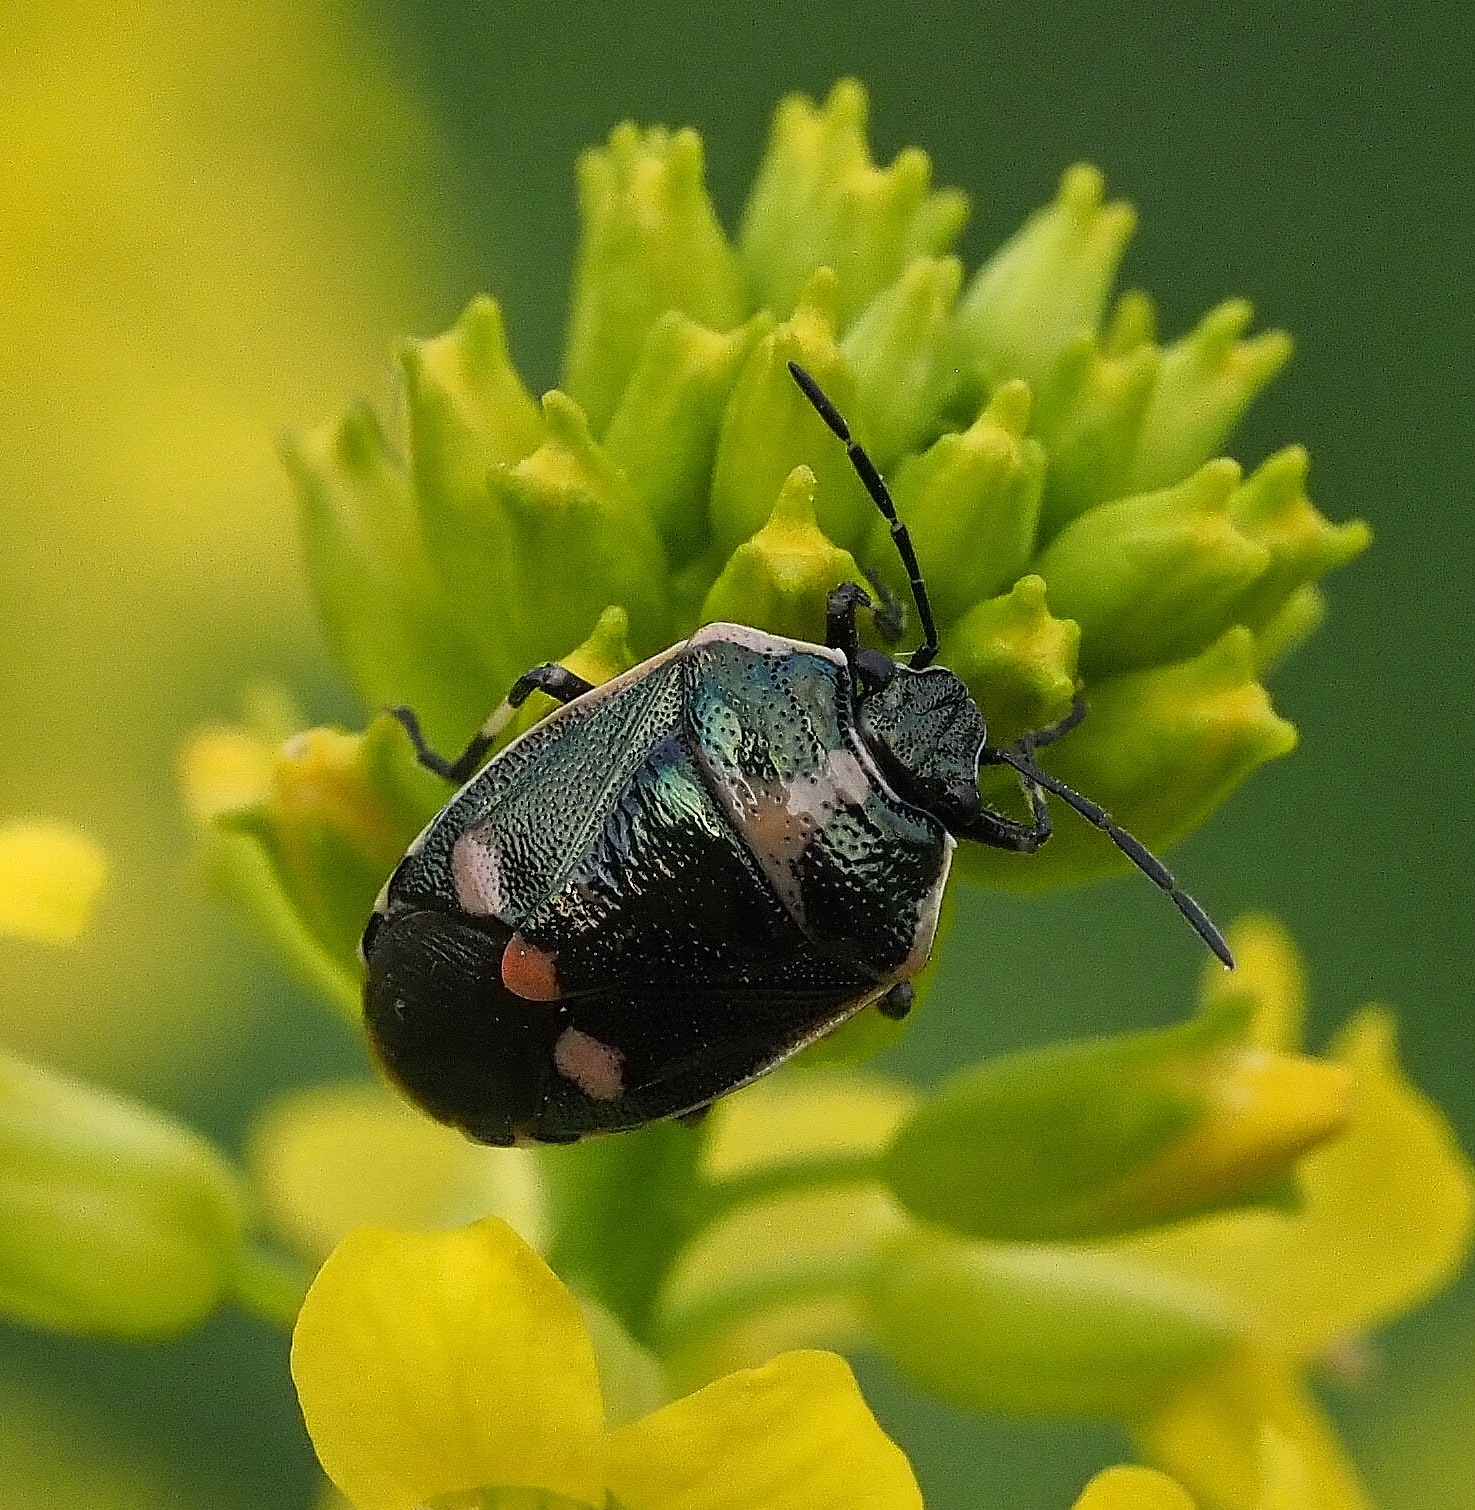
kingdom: Animalia
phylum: Arthropoda
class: Insecta
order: Hemiptera
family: Pentatomidae
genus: Eurydema
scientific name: Eurydema oleracea
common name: Cabbage bug
